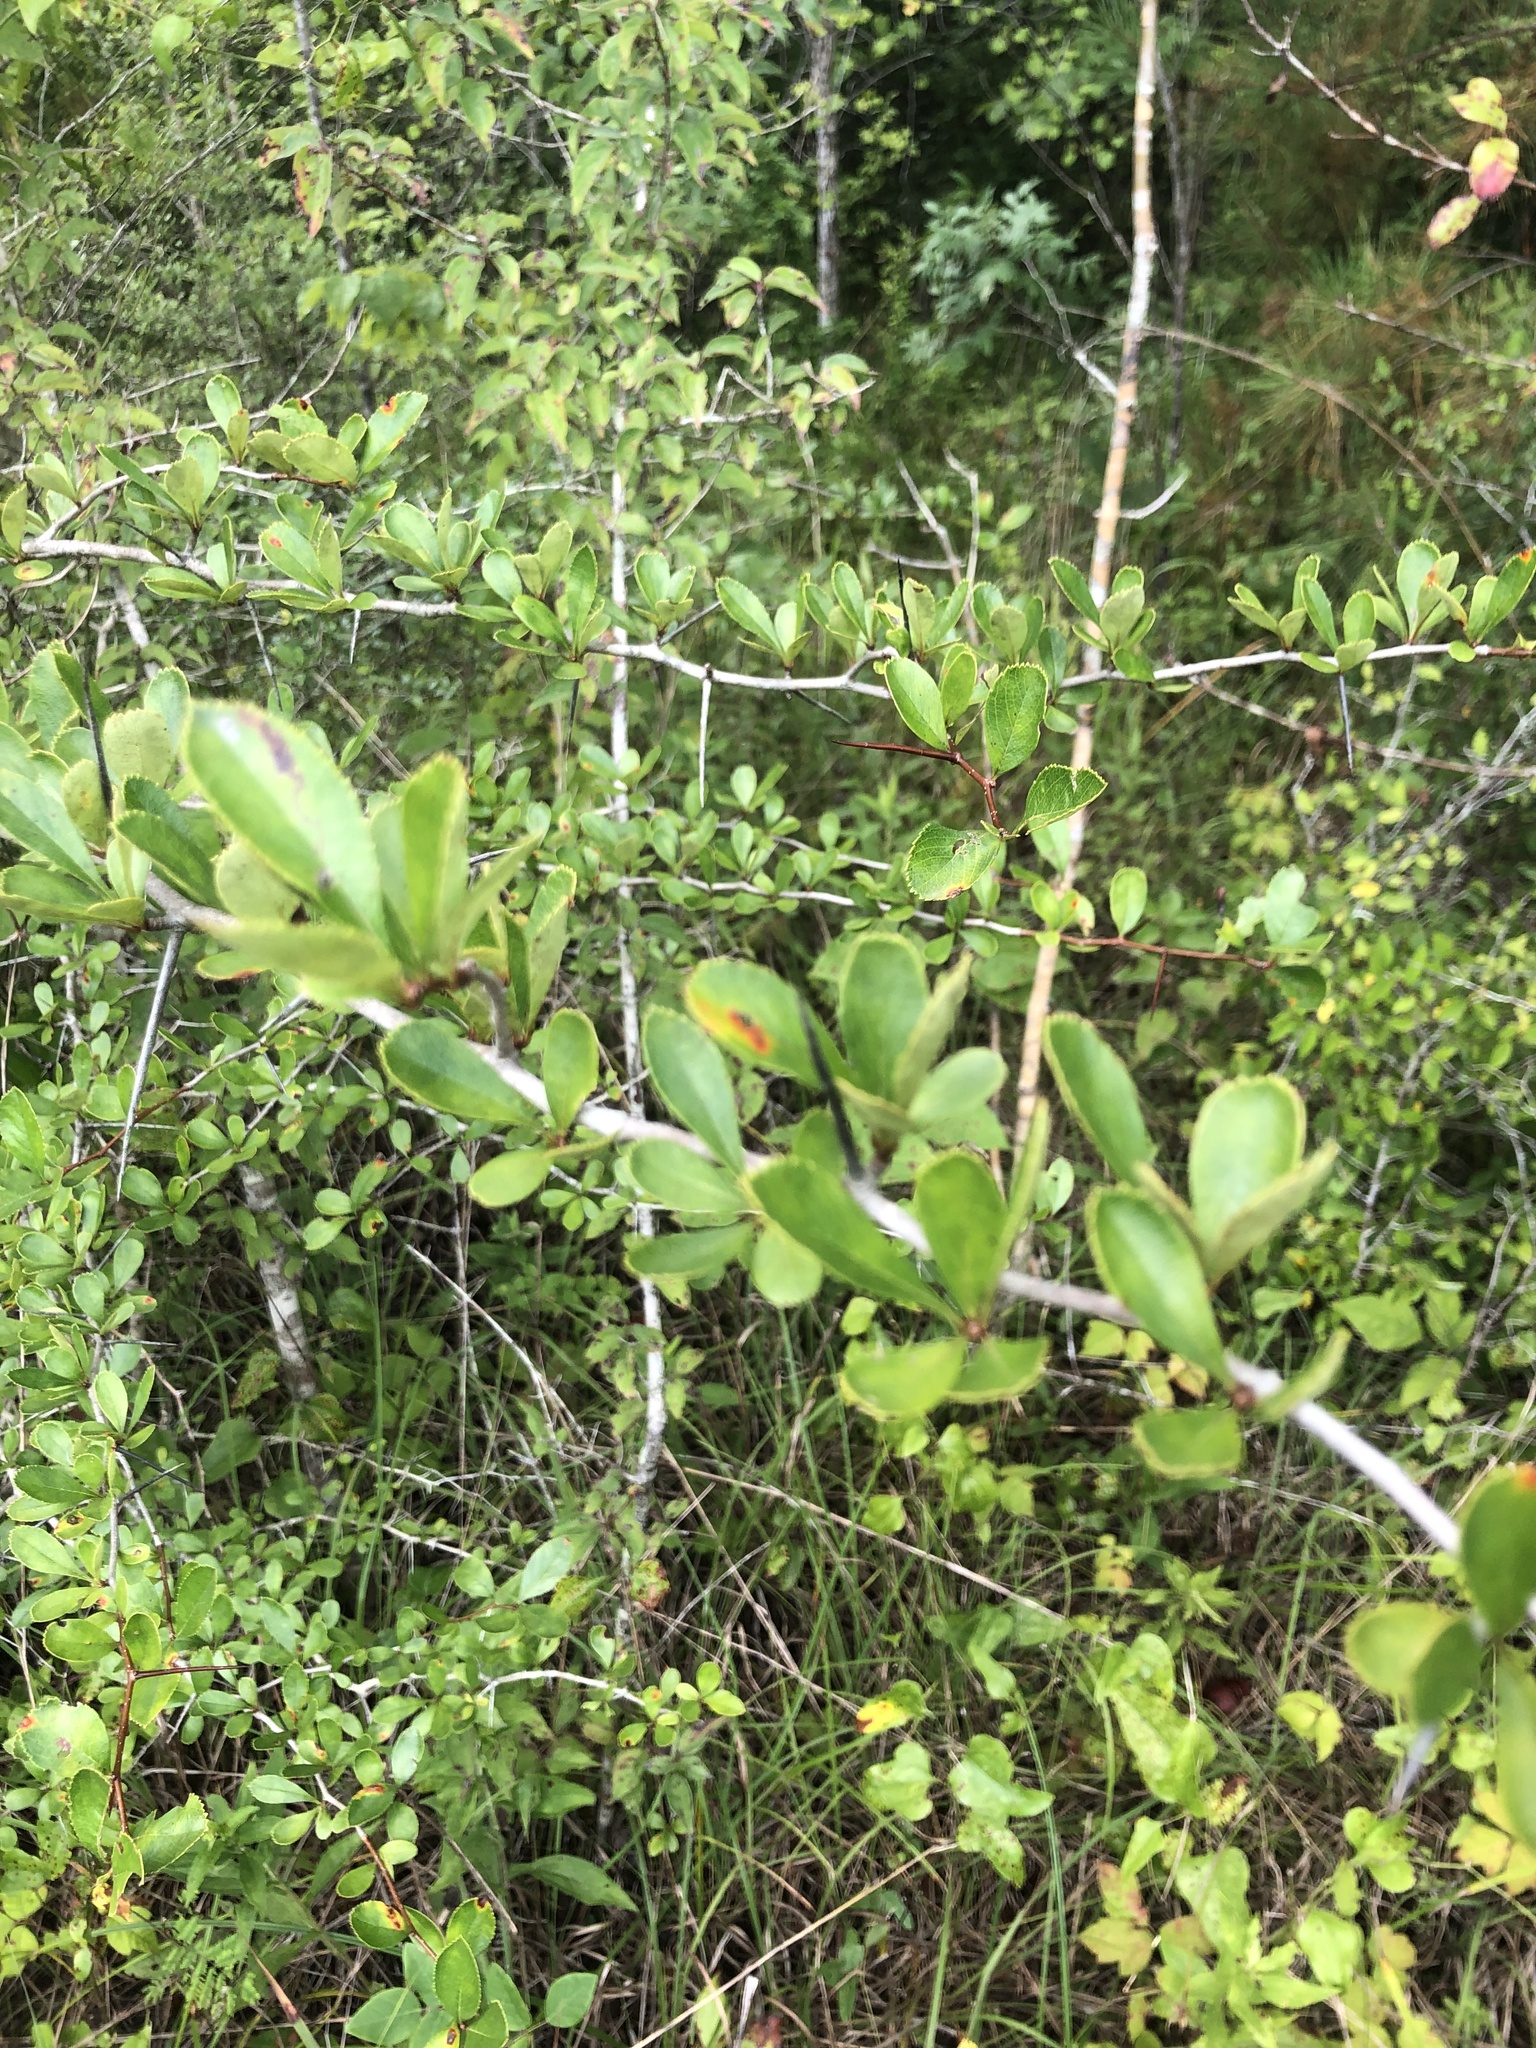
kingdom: Plantae
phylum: Tracheophyta
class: Magnoliopsida
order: Rosales
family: Rosaceae
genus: Crataegus
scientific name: Crataegus berberifolia
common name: Barberry hawthorn
